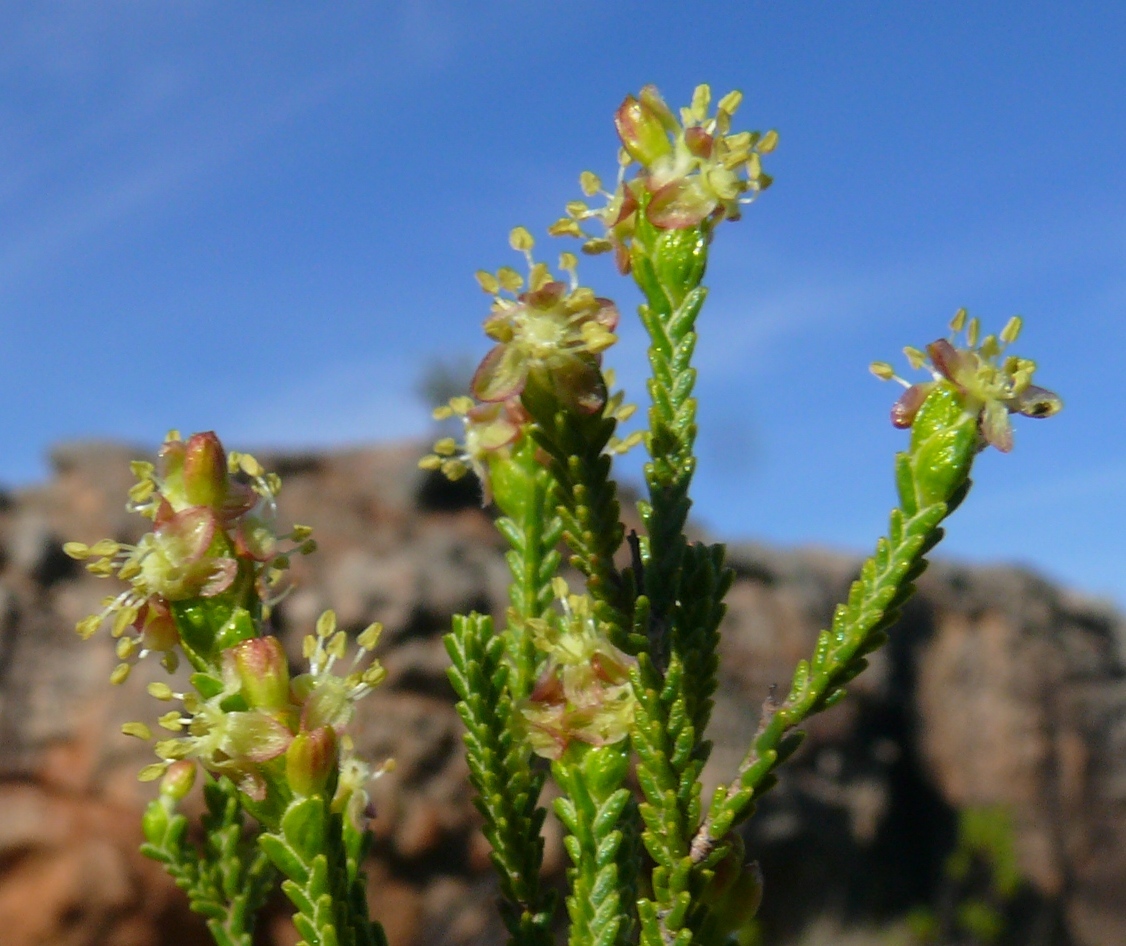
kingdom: Plantae
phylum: Tracheophyta
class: Magnoliopsida
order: Malvales
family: Thymelaeaceae
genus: Passerina
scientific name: Passerina truncata
